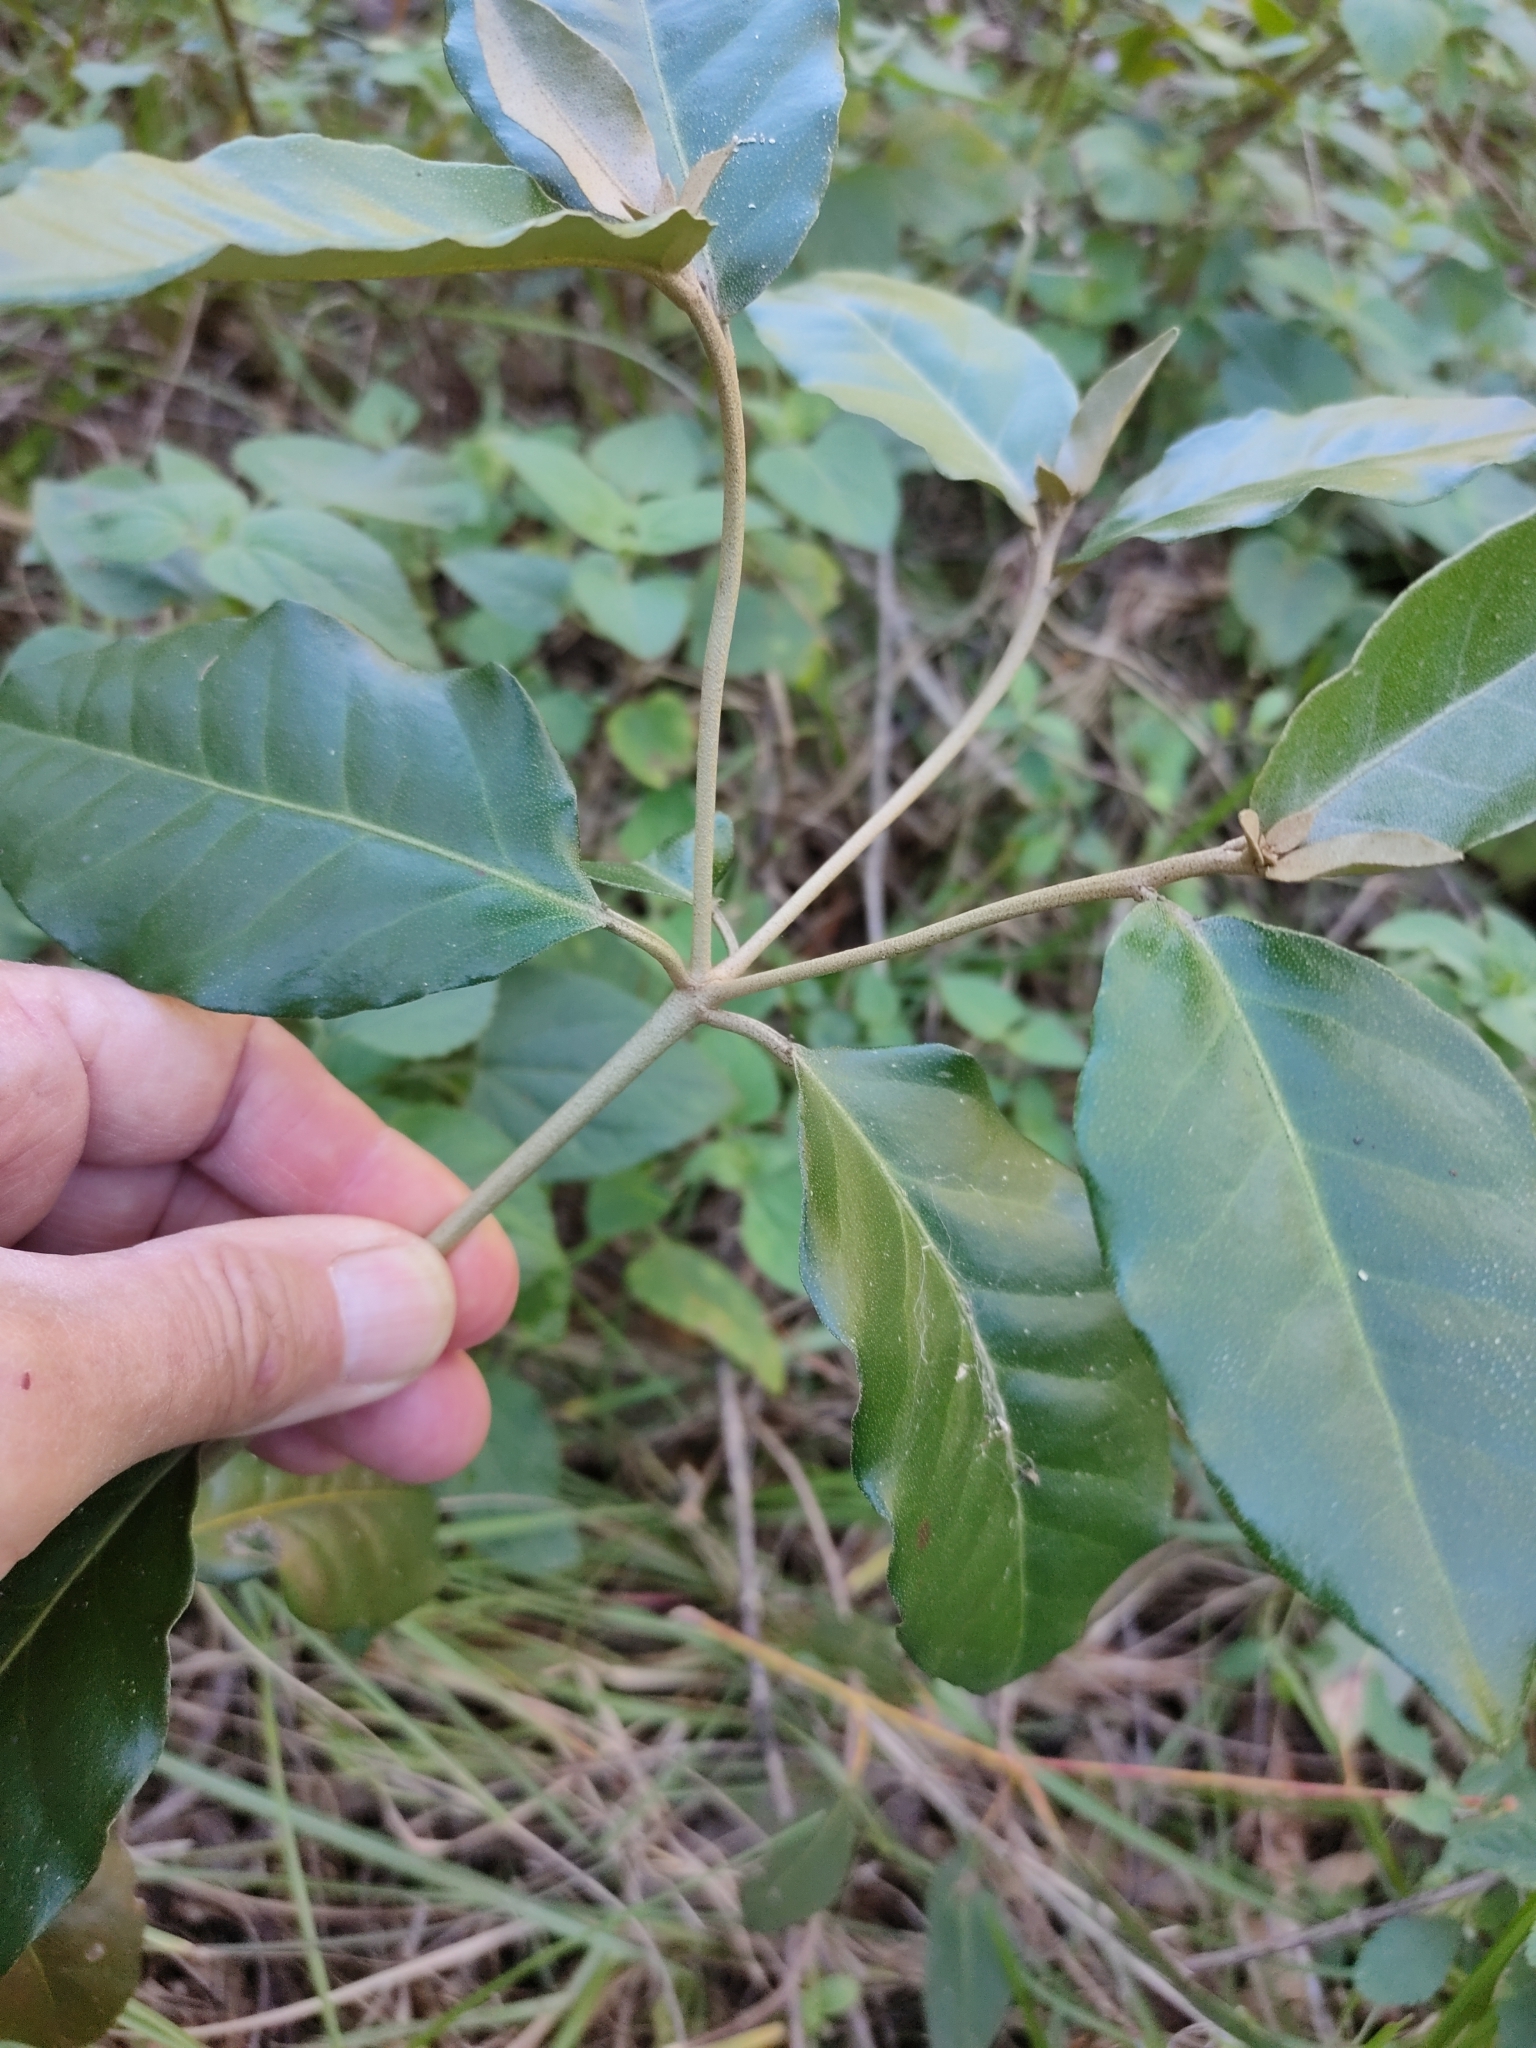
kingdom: Plantae
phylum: Tracheophyta
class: Magnoliopsida
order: Malpighiales
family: Euphorbiaceae
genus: Croton
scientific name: Croton insularis
